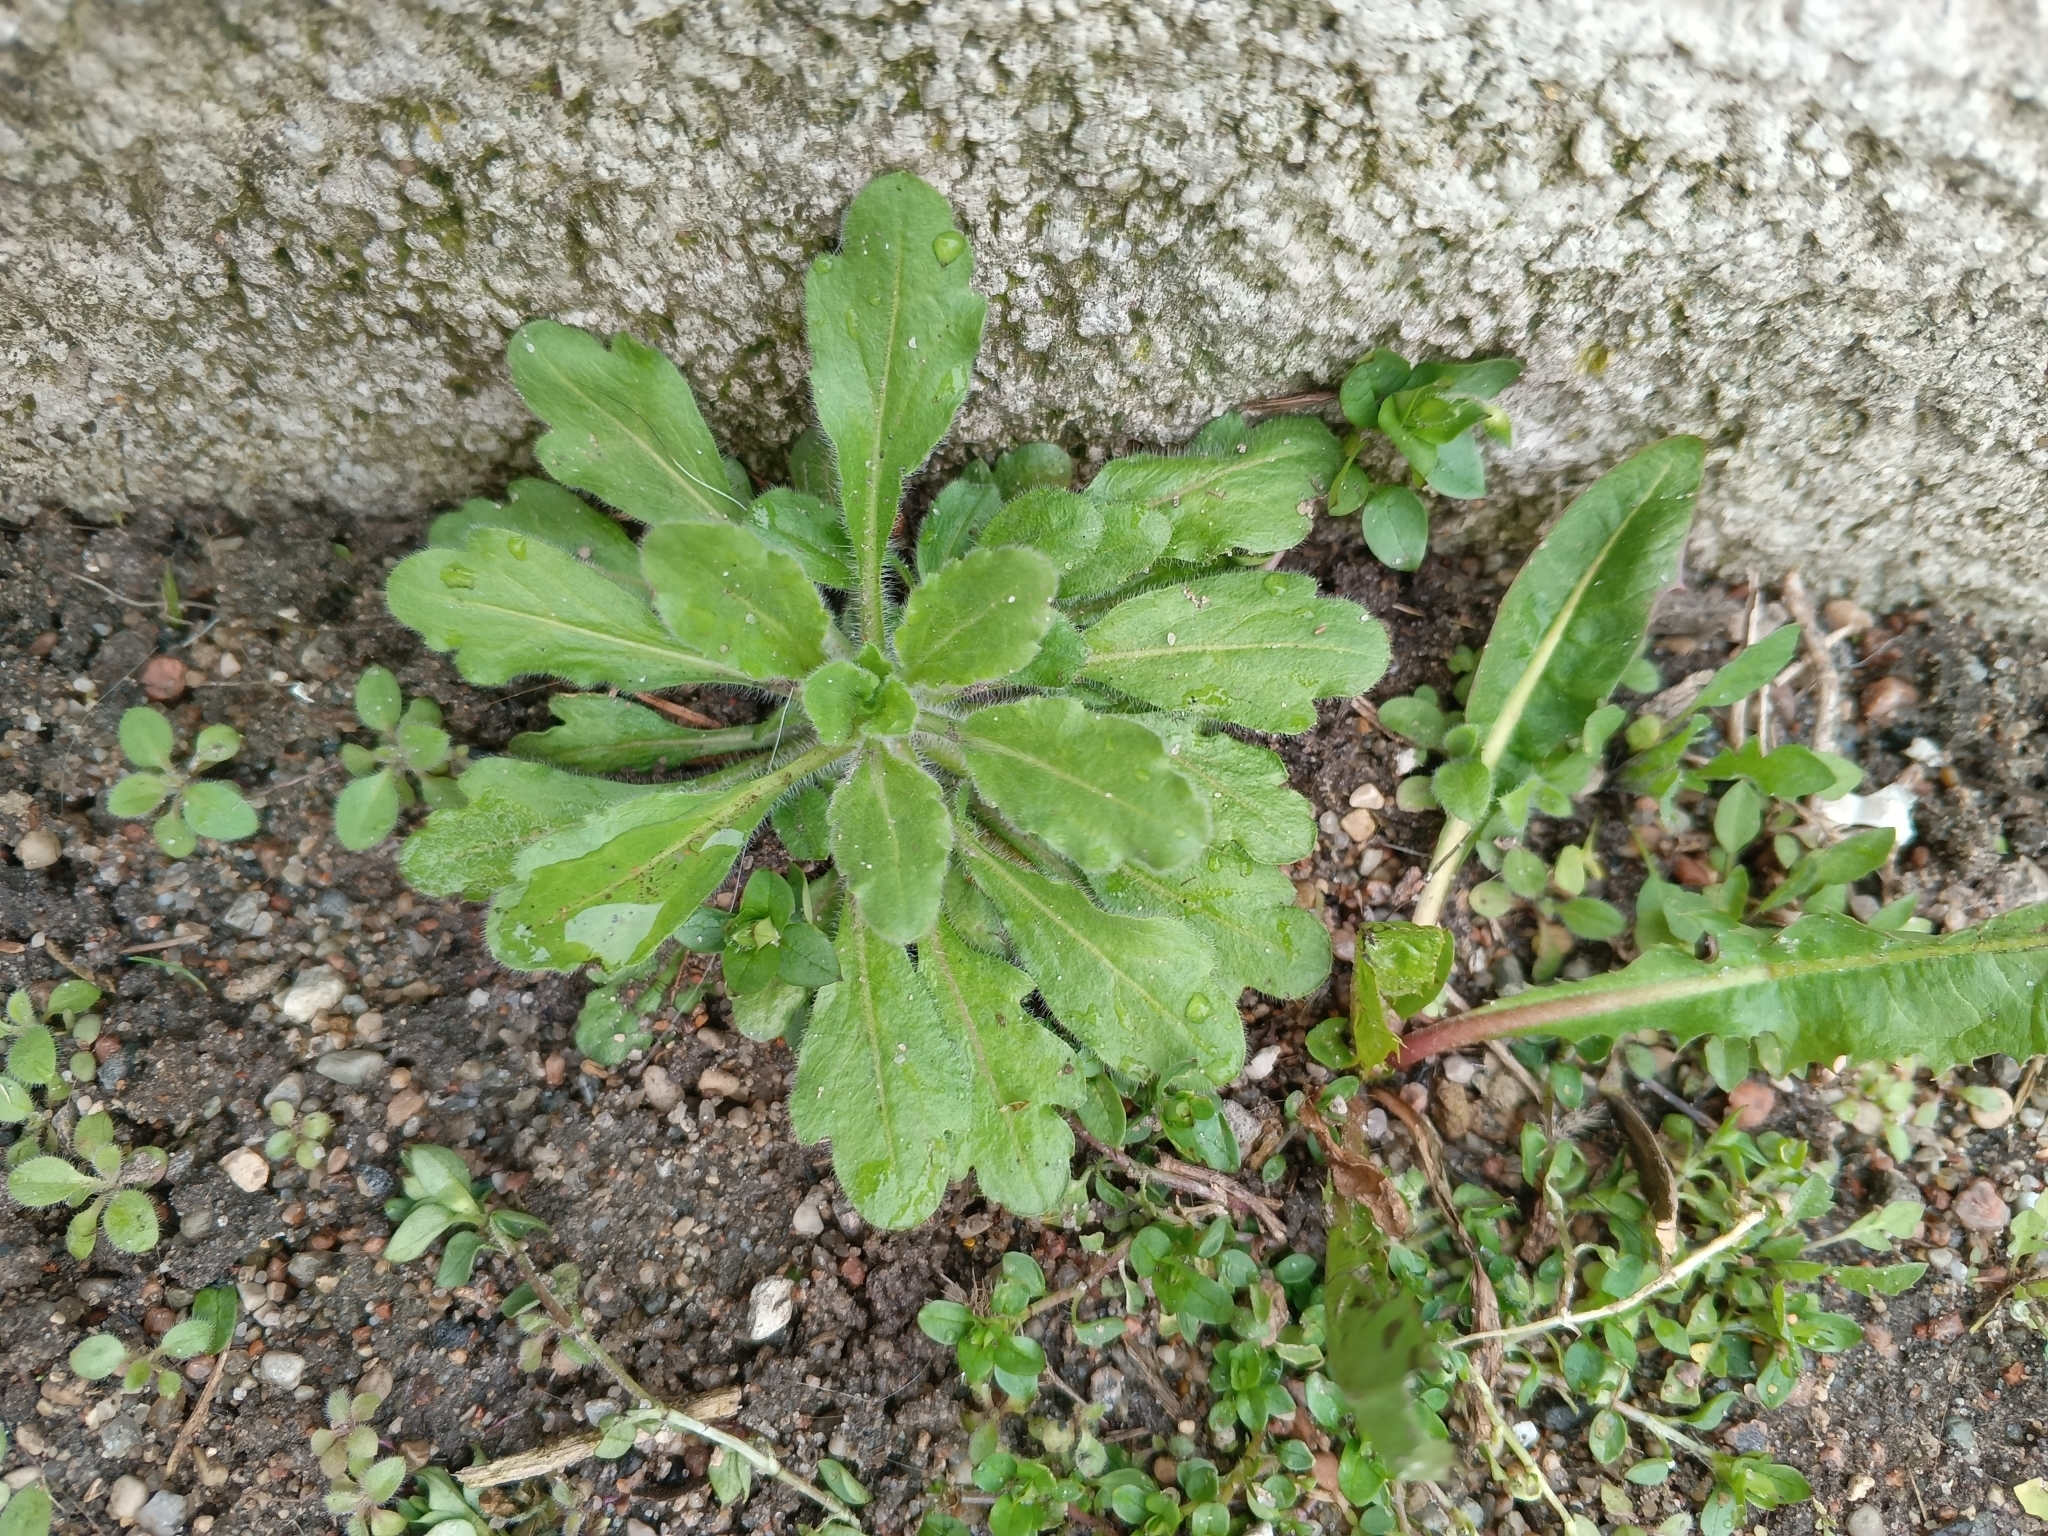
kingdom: Plantae
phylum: Tracheophyta
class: Magnoliopsida
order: Asterales
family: Asteraceae
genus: Erigeron
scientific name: Erigeron canadensis
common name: Canadian fleabane
